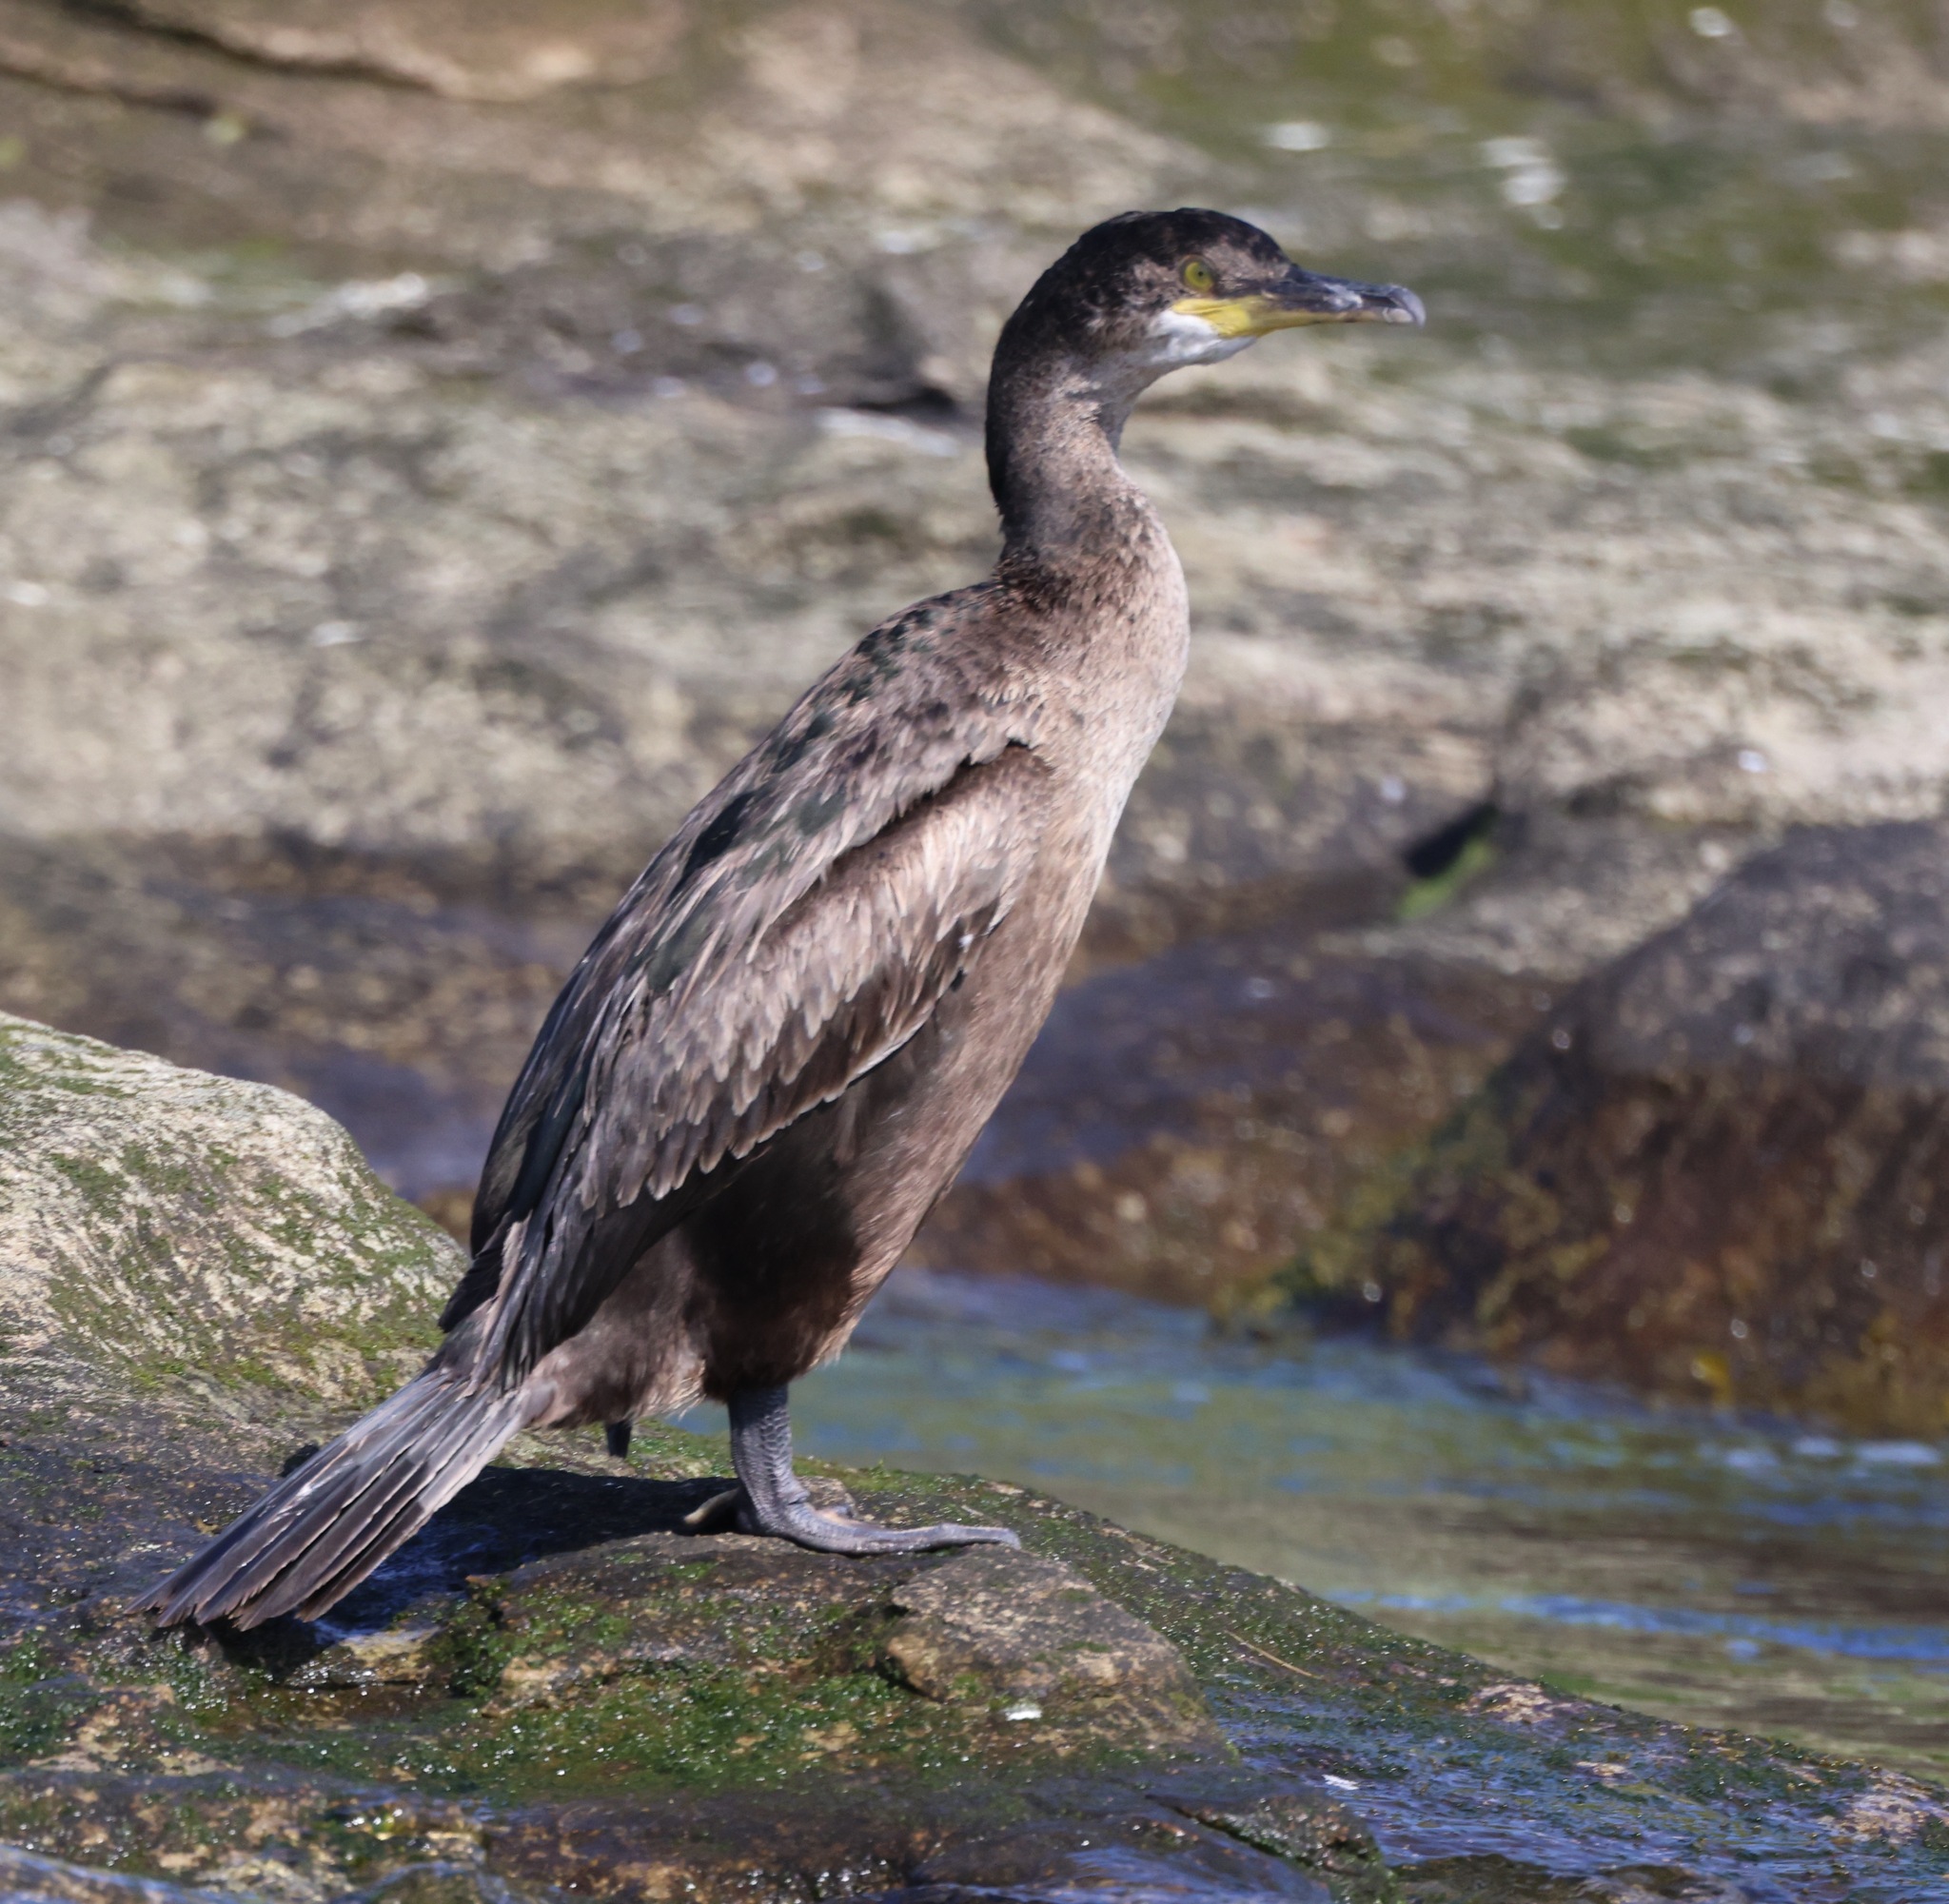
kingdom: Animalia
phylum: Chordata
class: Aves
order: Suliformes
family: Phalacrocoracidae
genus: Phalacrocorax
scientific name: Phalacrocorax aristotelis
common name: European shag
